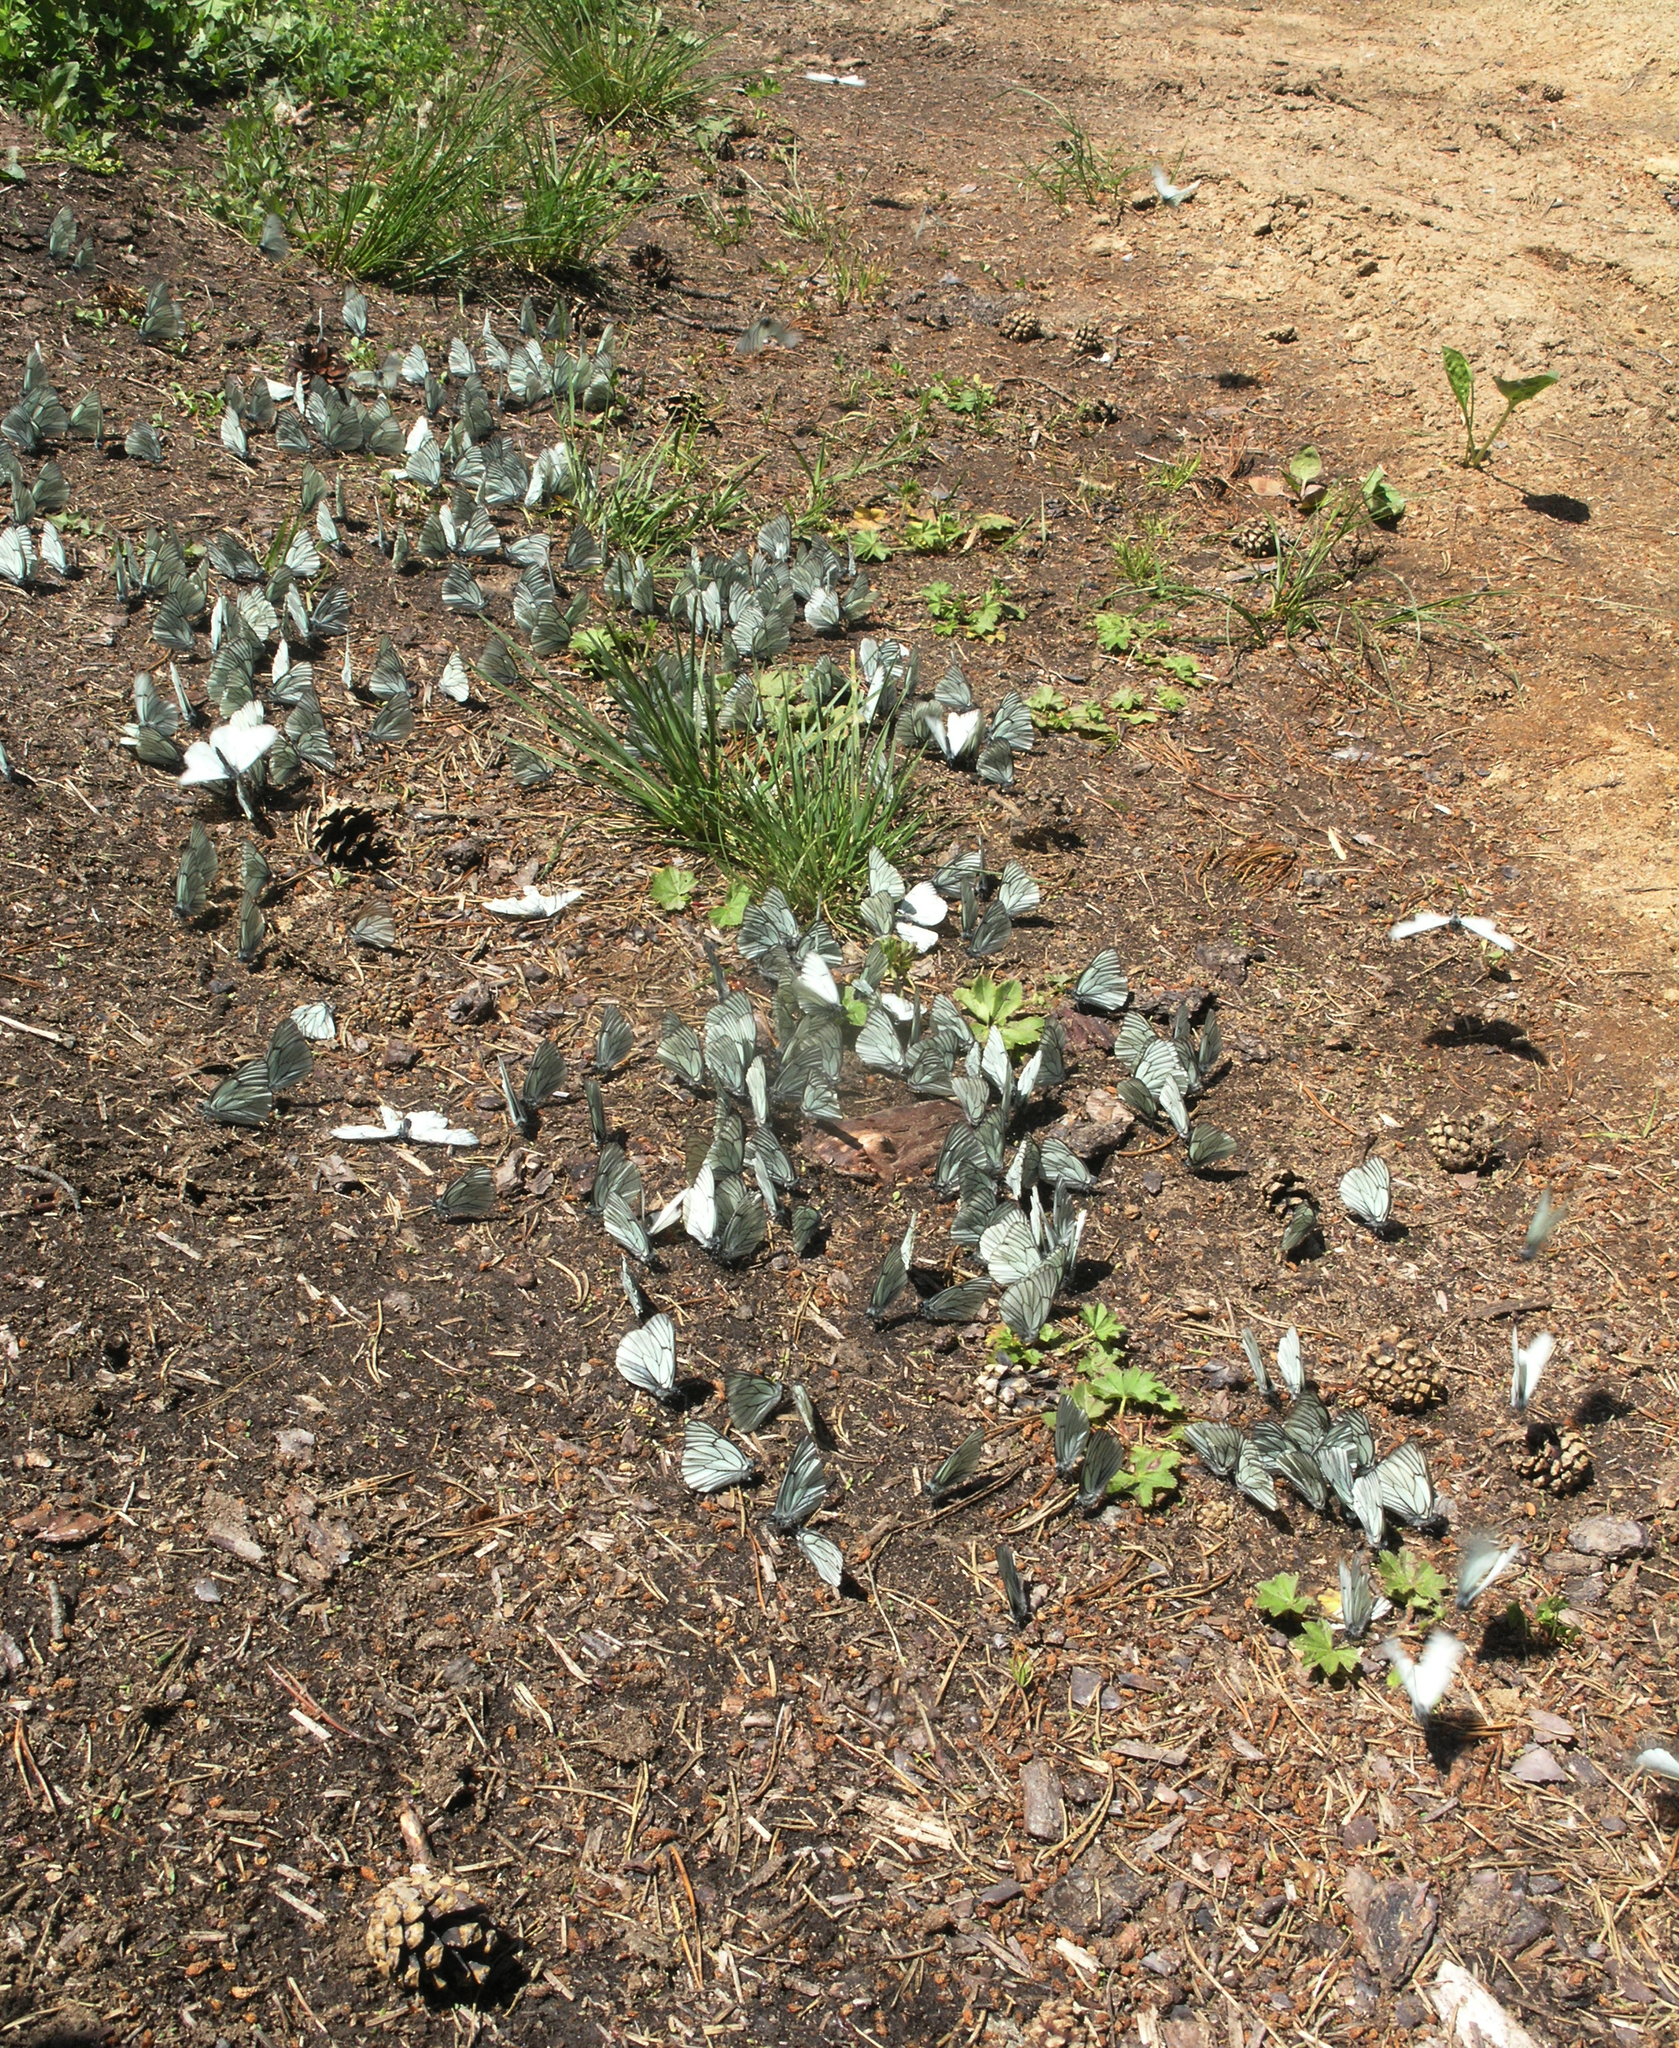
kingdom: Animalia
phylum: Arthropoda
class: Insecta
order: Lepidoptera
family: Pieridae
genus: Aporia
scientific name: Aporia crataegi
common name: Black-veined white
